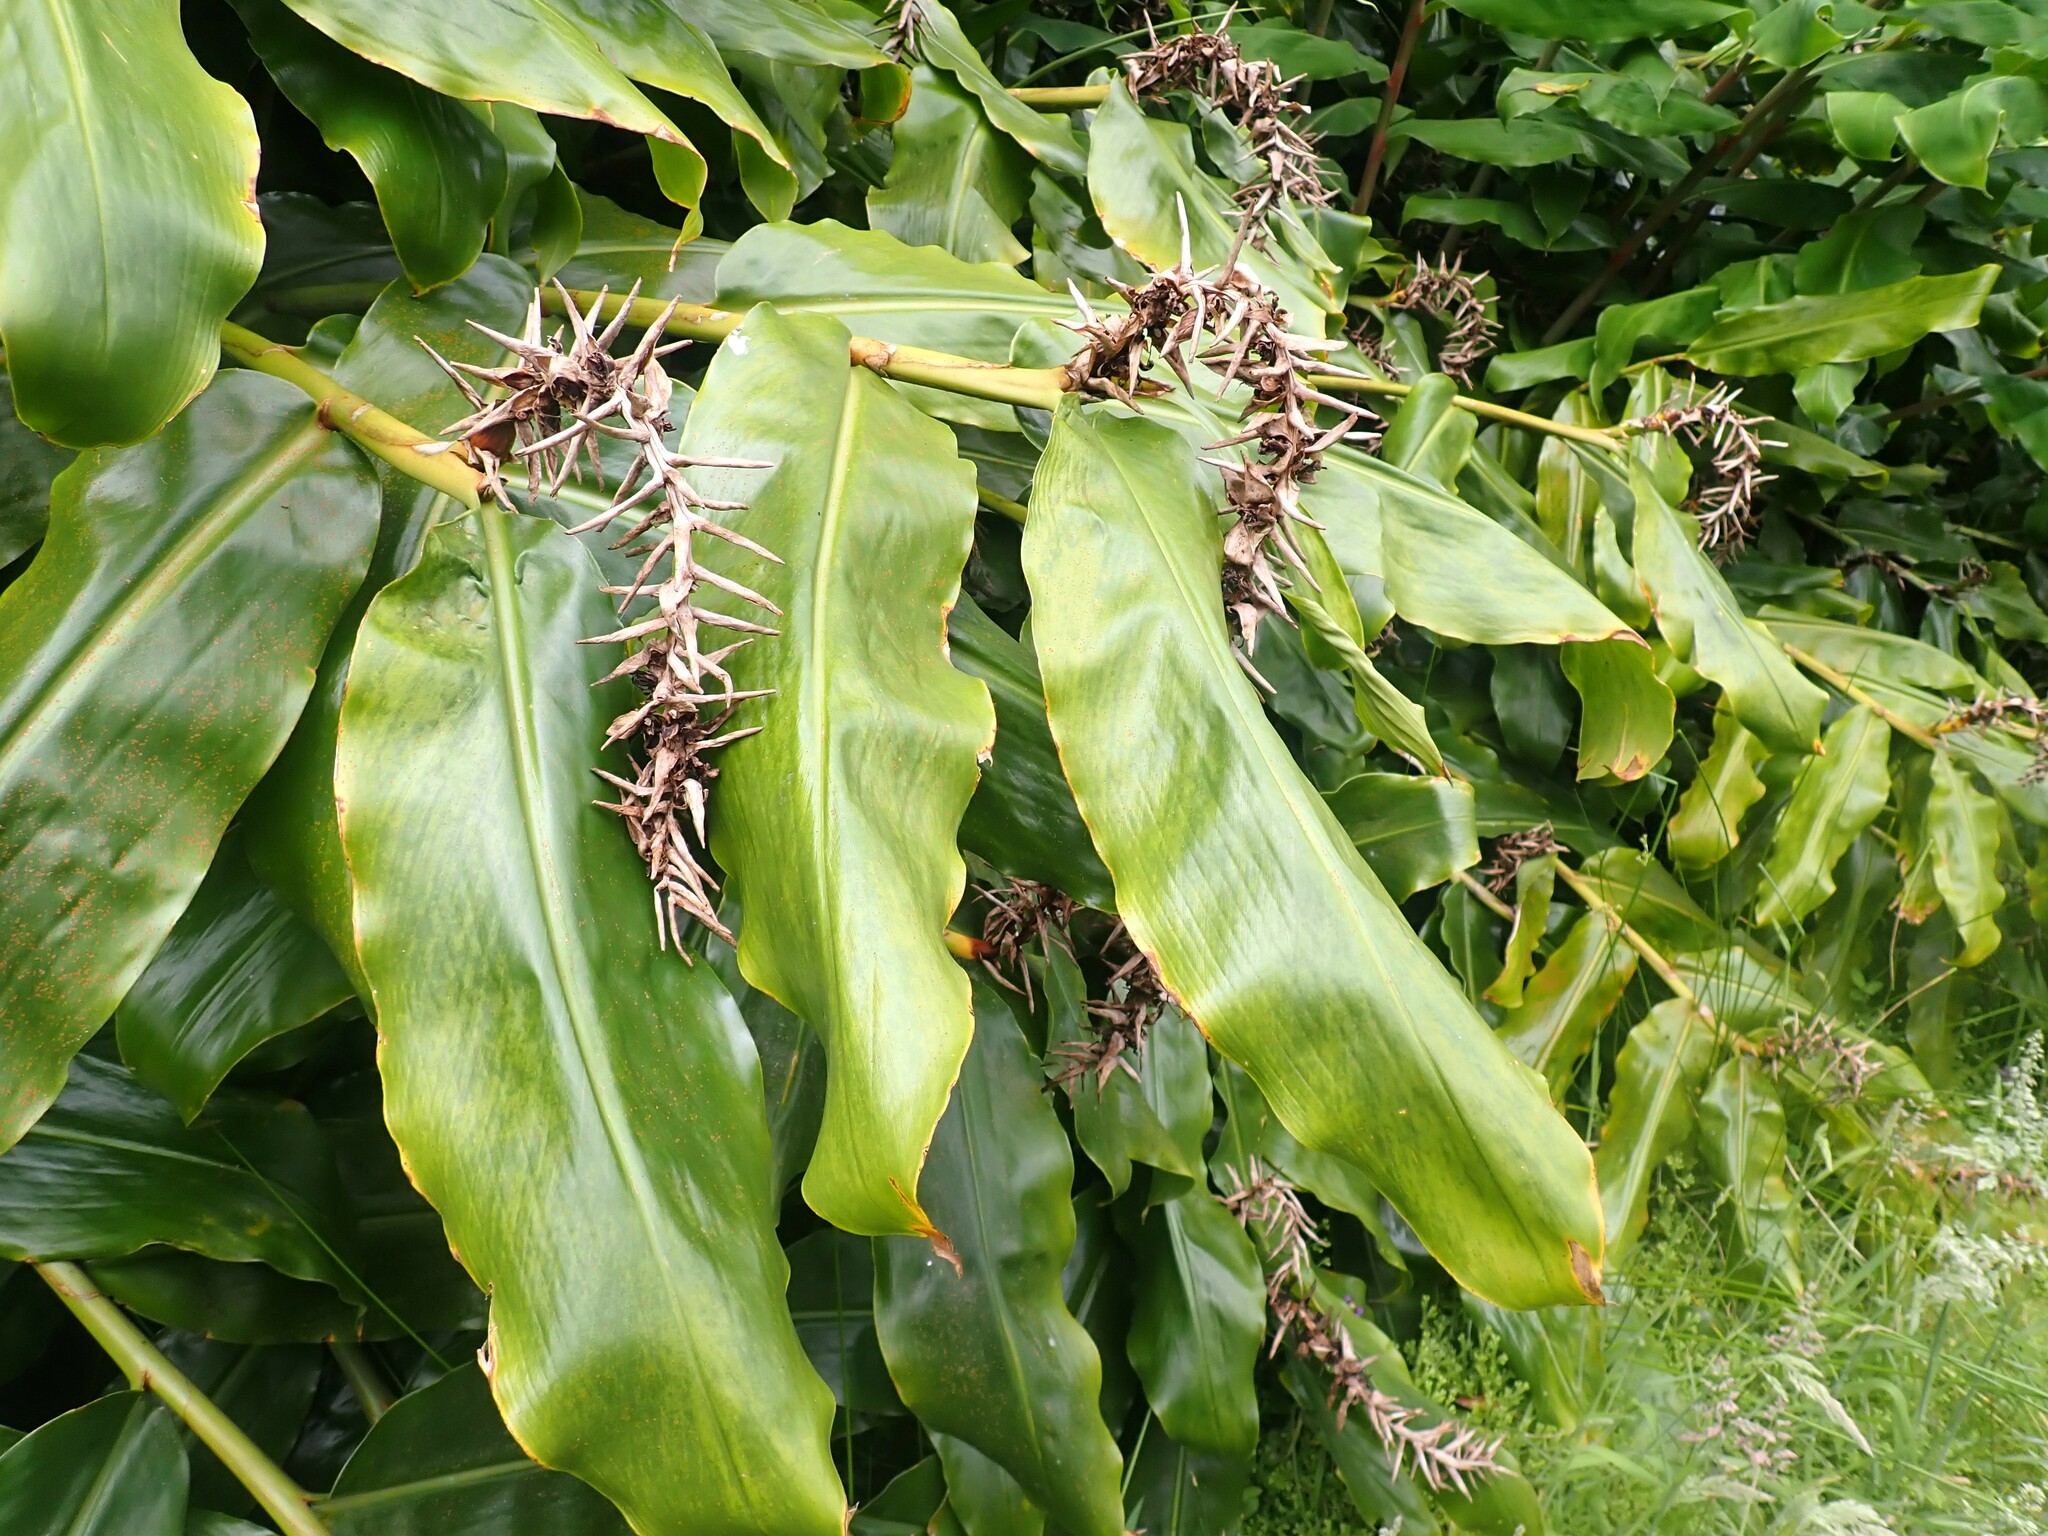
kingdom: Plantae
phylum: Tracheophyta
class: Liliopsida
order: Zingiberales
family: Zingiberaceae
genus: Hedychium
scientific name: Hedychium gardnerianum
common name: Himalayan ginger
